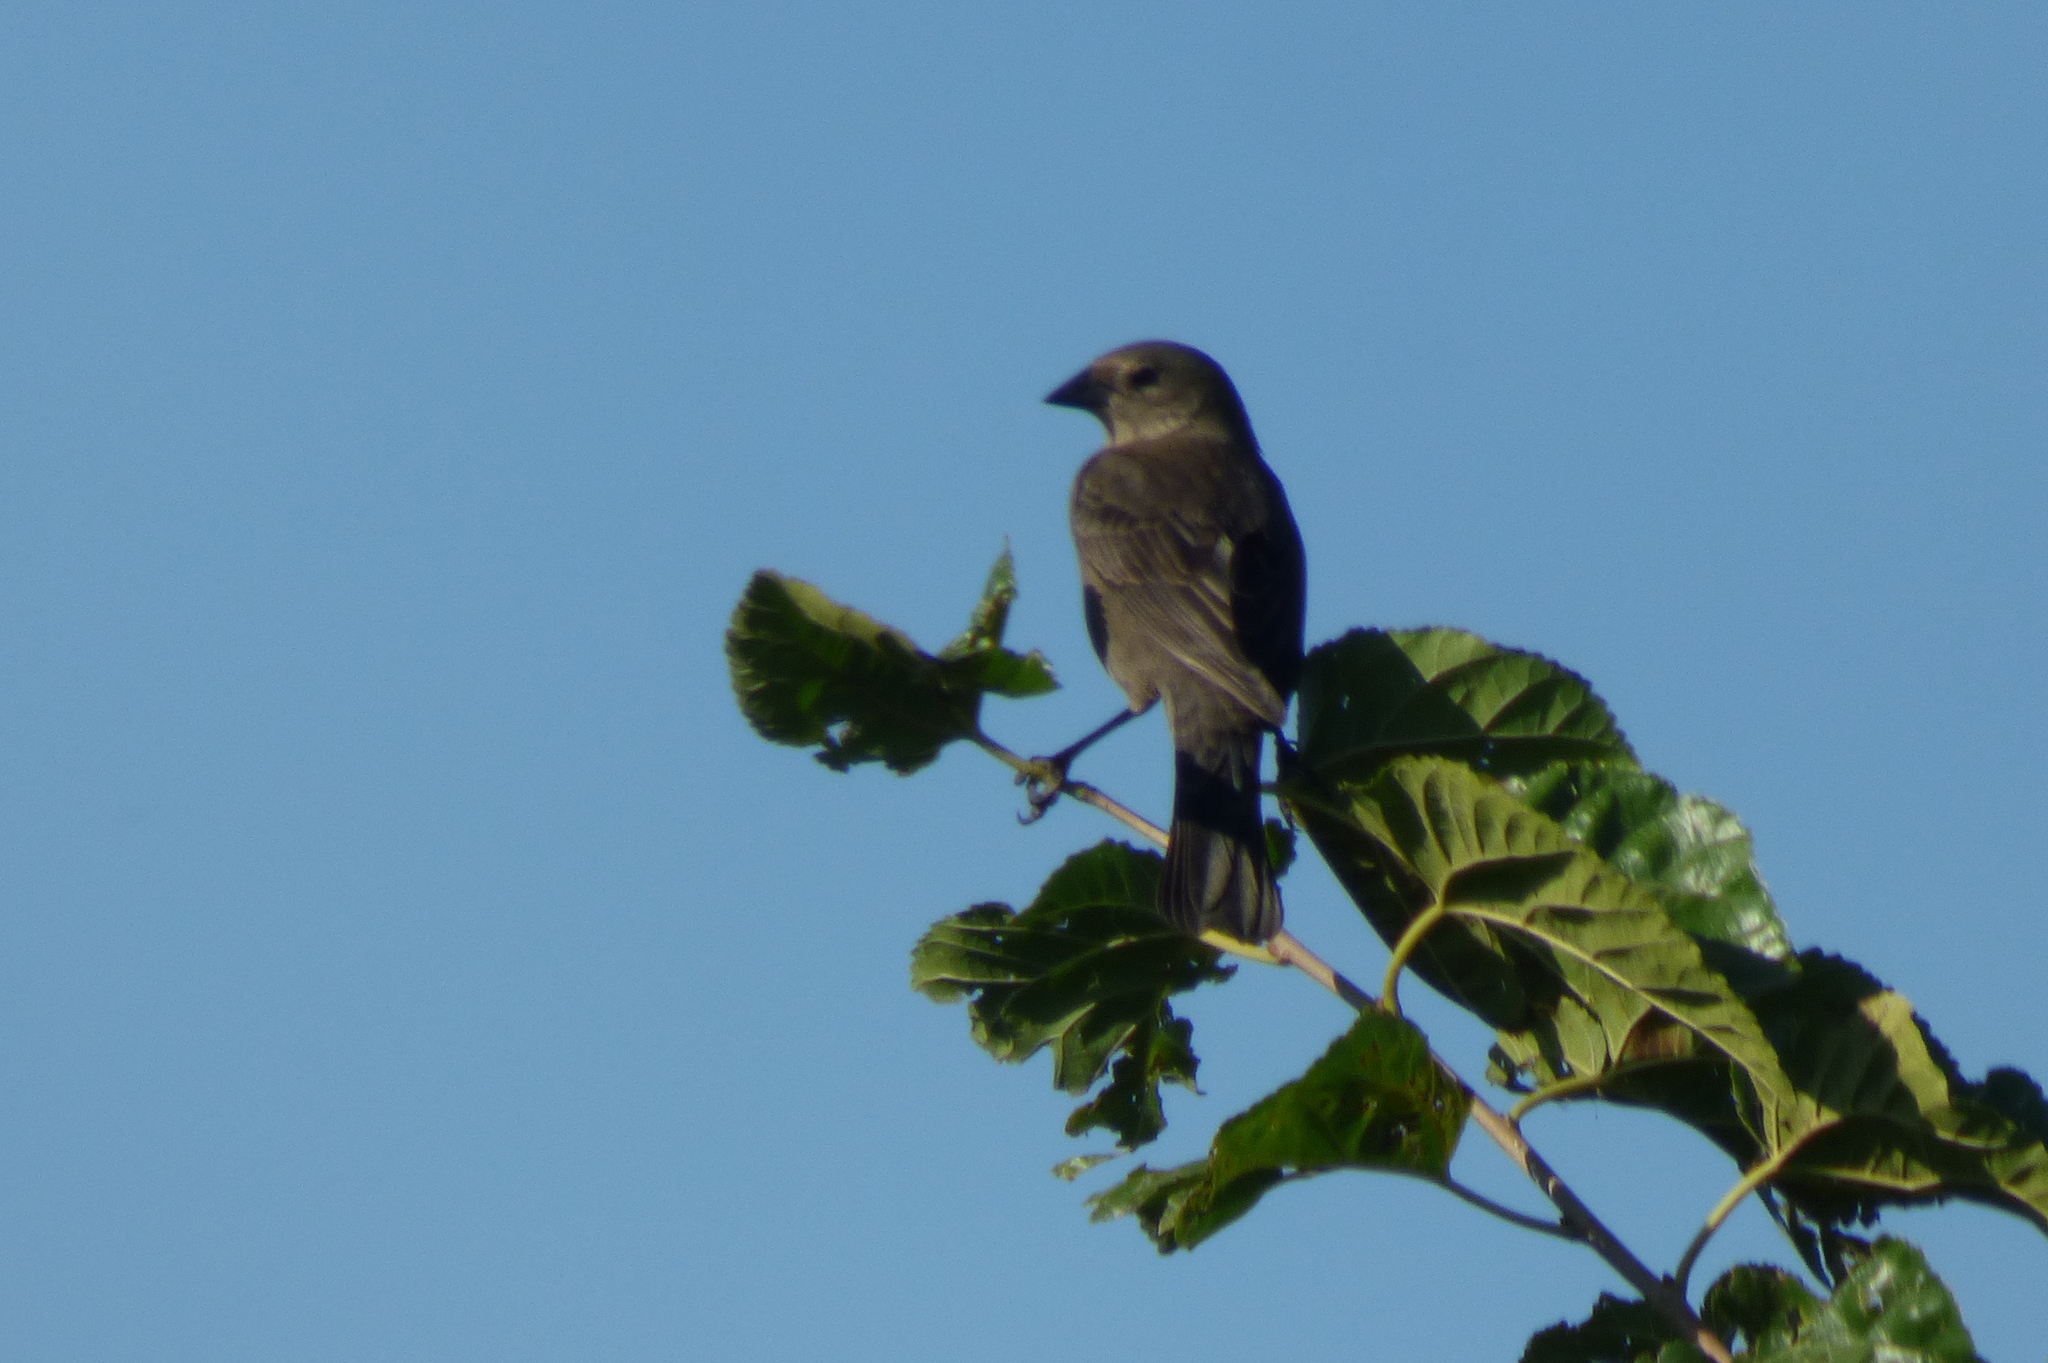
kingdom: Animalia
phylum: Chordata
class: Aves
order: Passeriformes
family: Icteridae
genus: Molothrus
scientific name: Molothrus bonariensis
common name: Shiny cowbird
